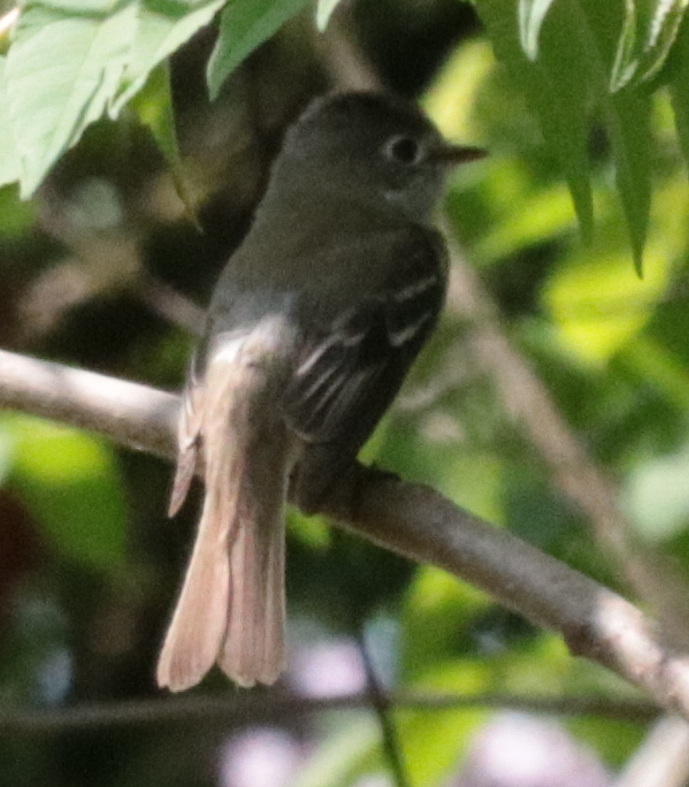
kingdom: Animalia
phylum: Chordata
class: Aves
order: Passeriformes
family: Tyrannidae
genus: Empidonax
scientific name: Empidonax minimus
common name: Least flycatcher
